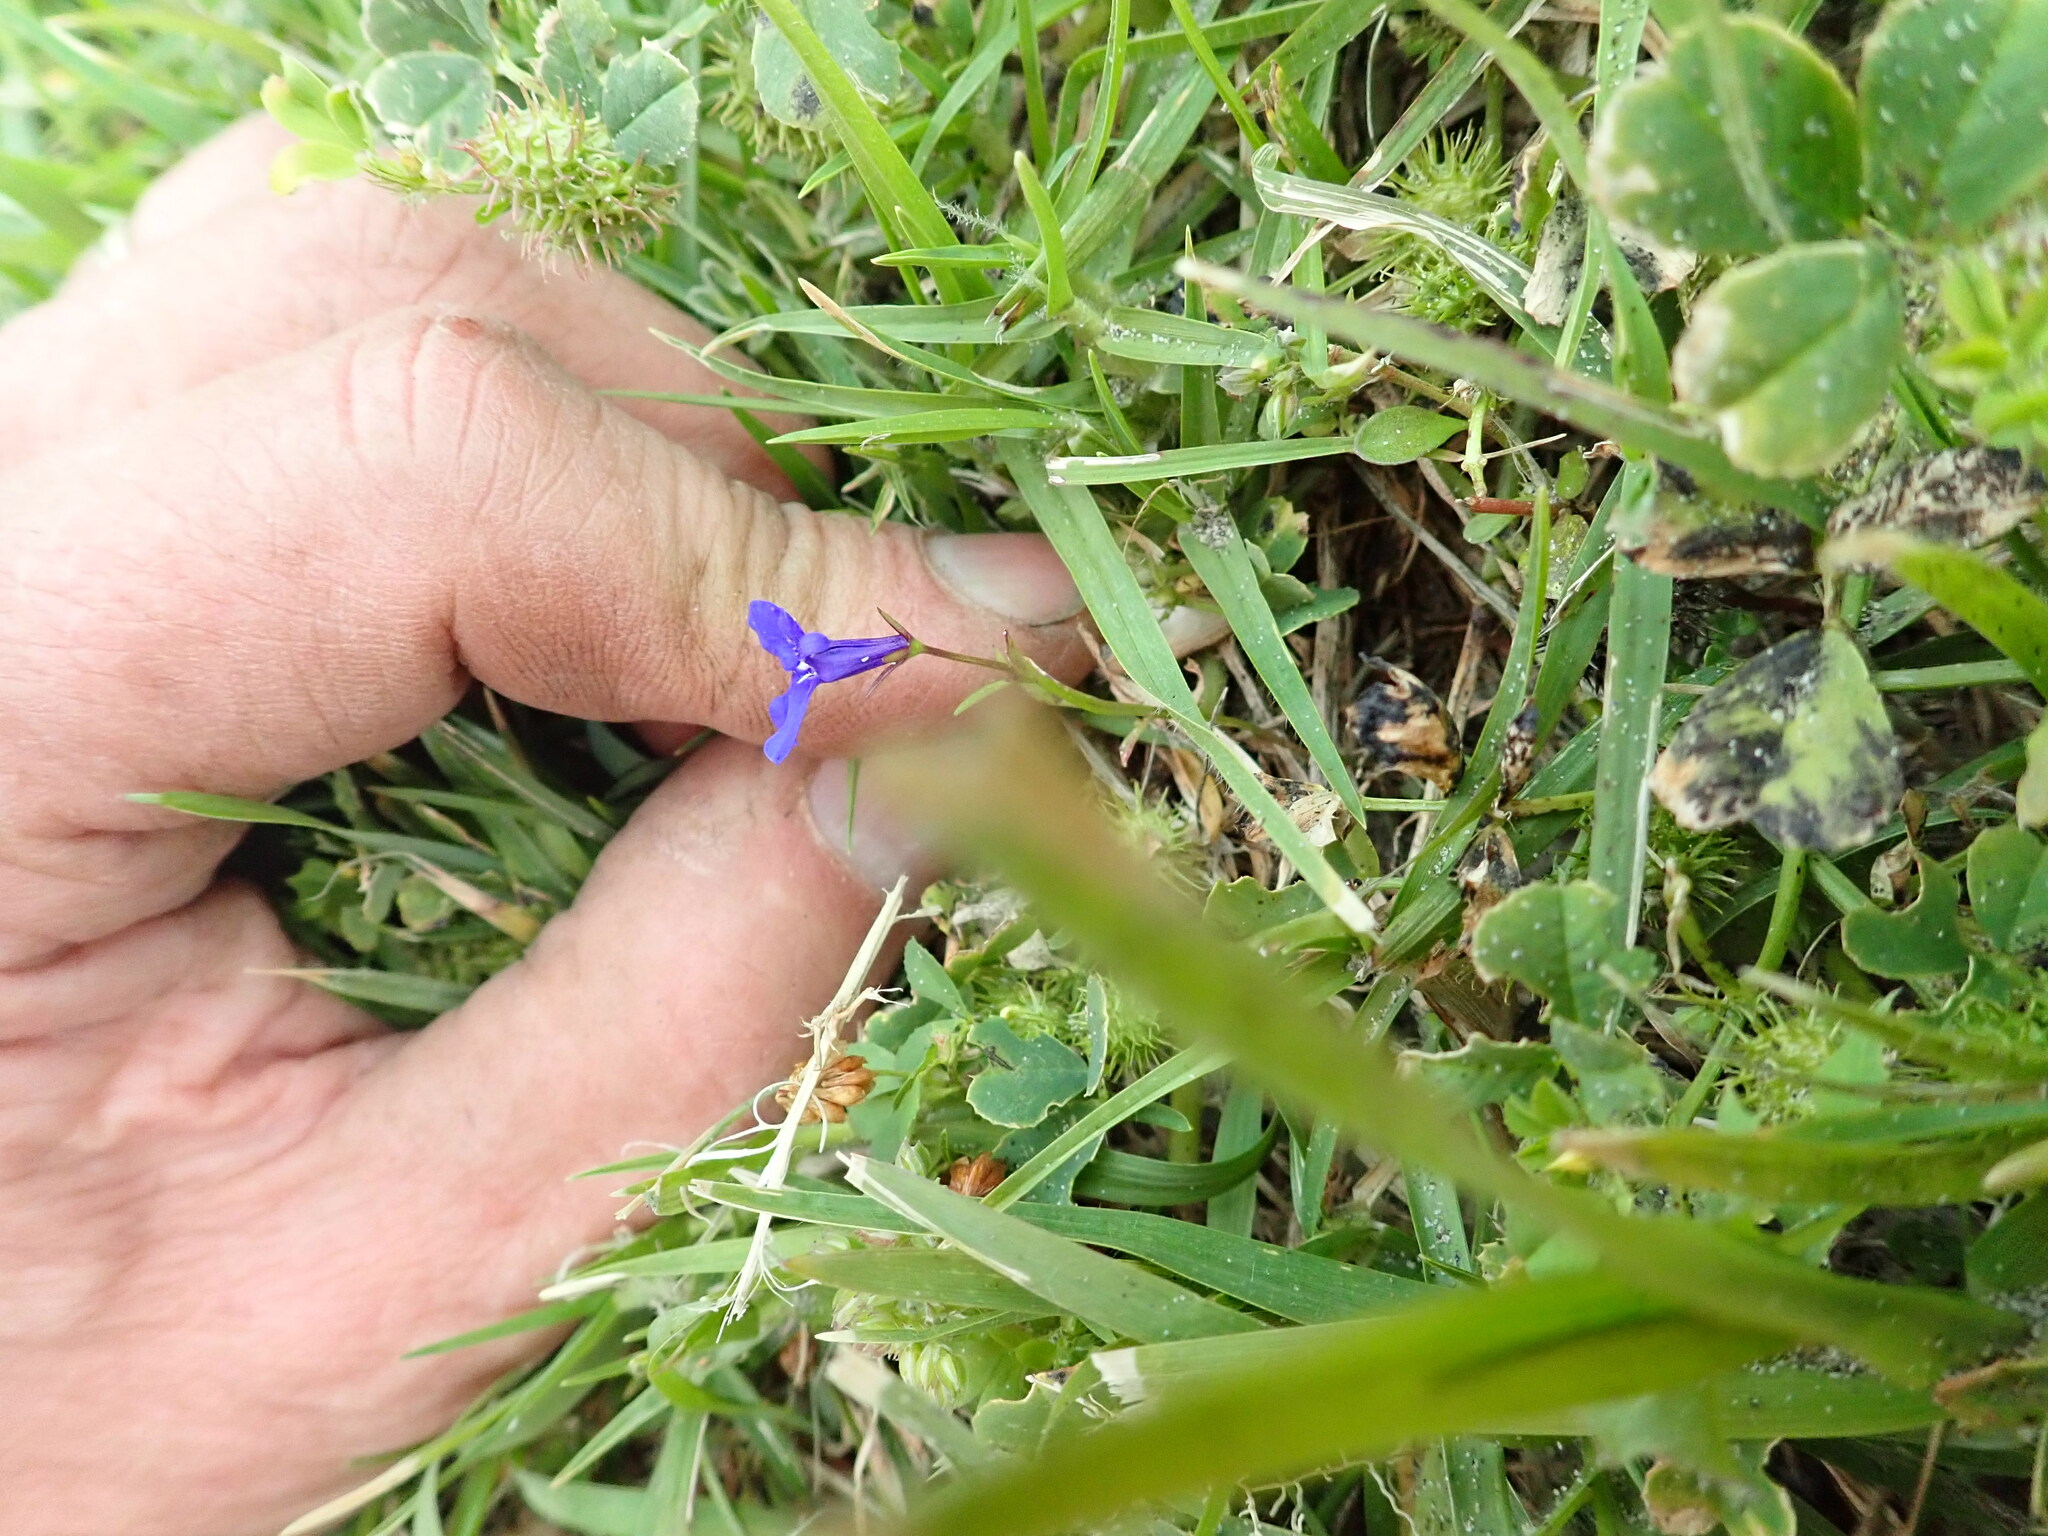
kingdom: Plantae
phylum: Tracheophyta
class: Magnoliopsida
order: Asterales
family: Campanulaceae
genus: Lobelia
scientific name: Lobelia erinus
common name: Edging lobelia
